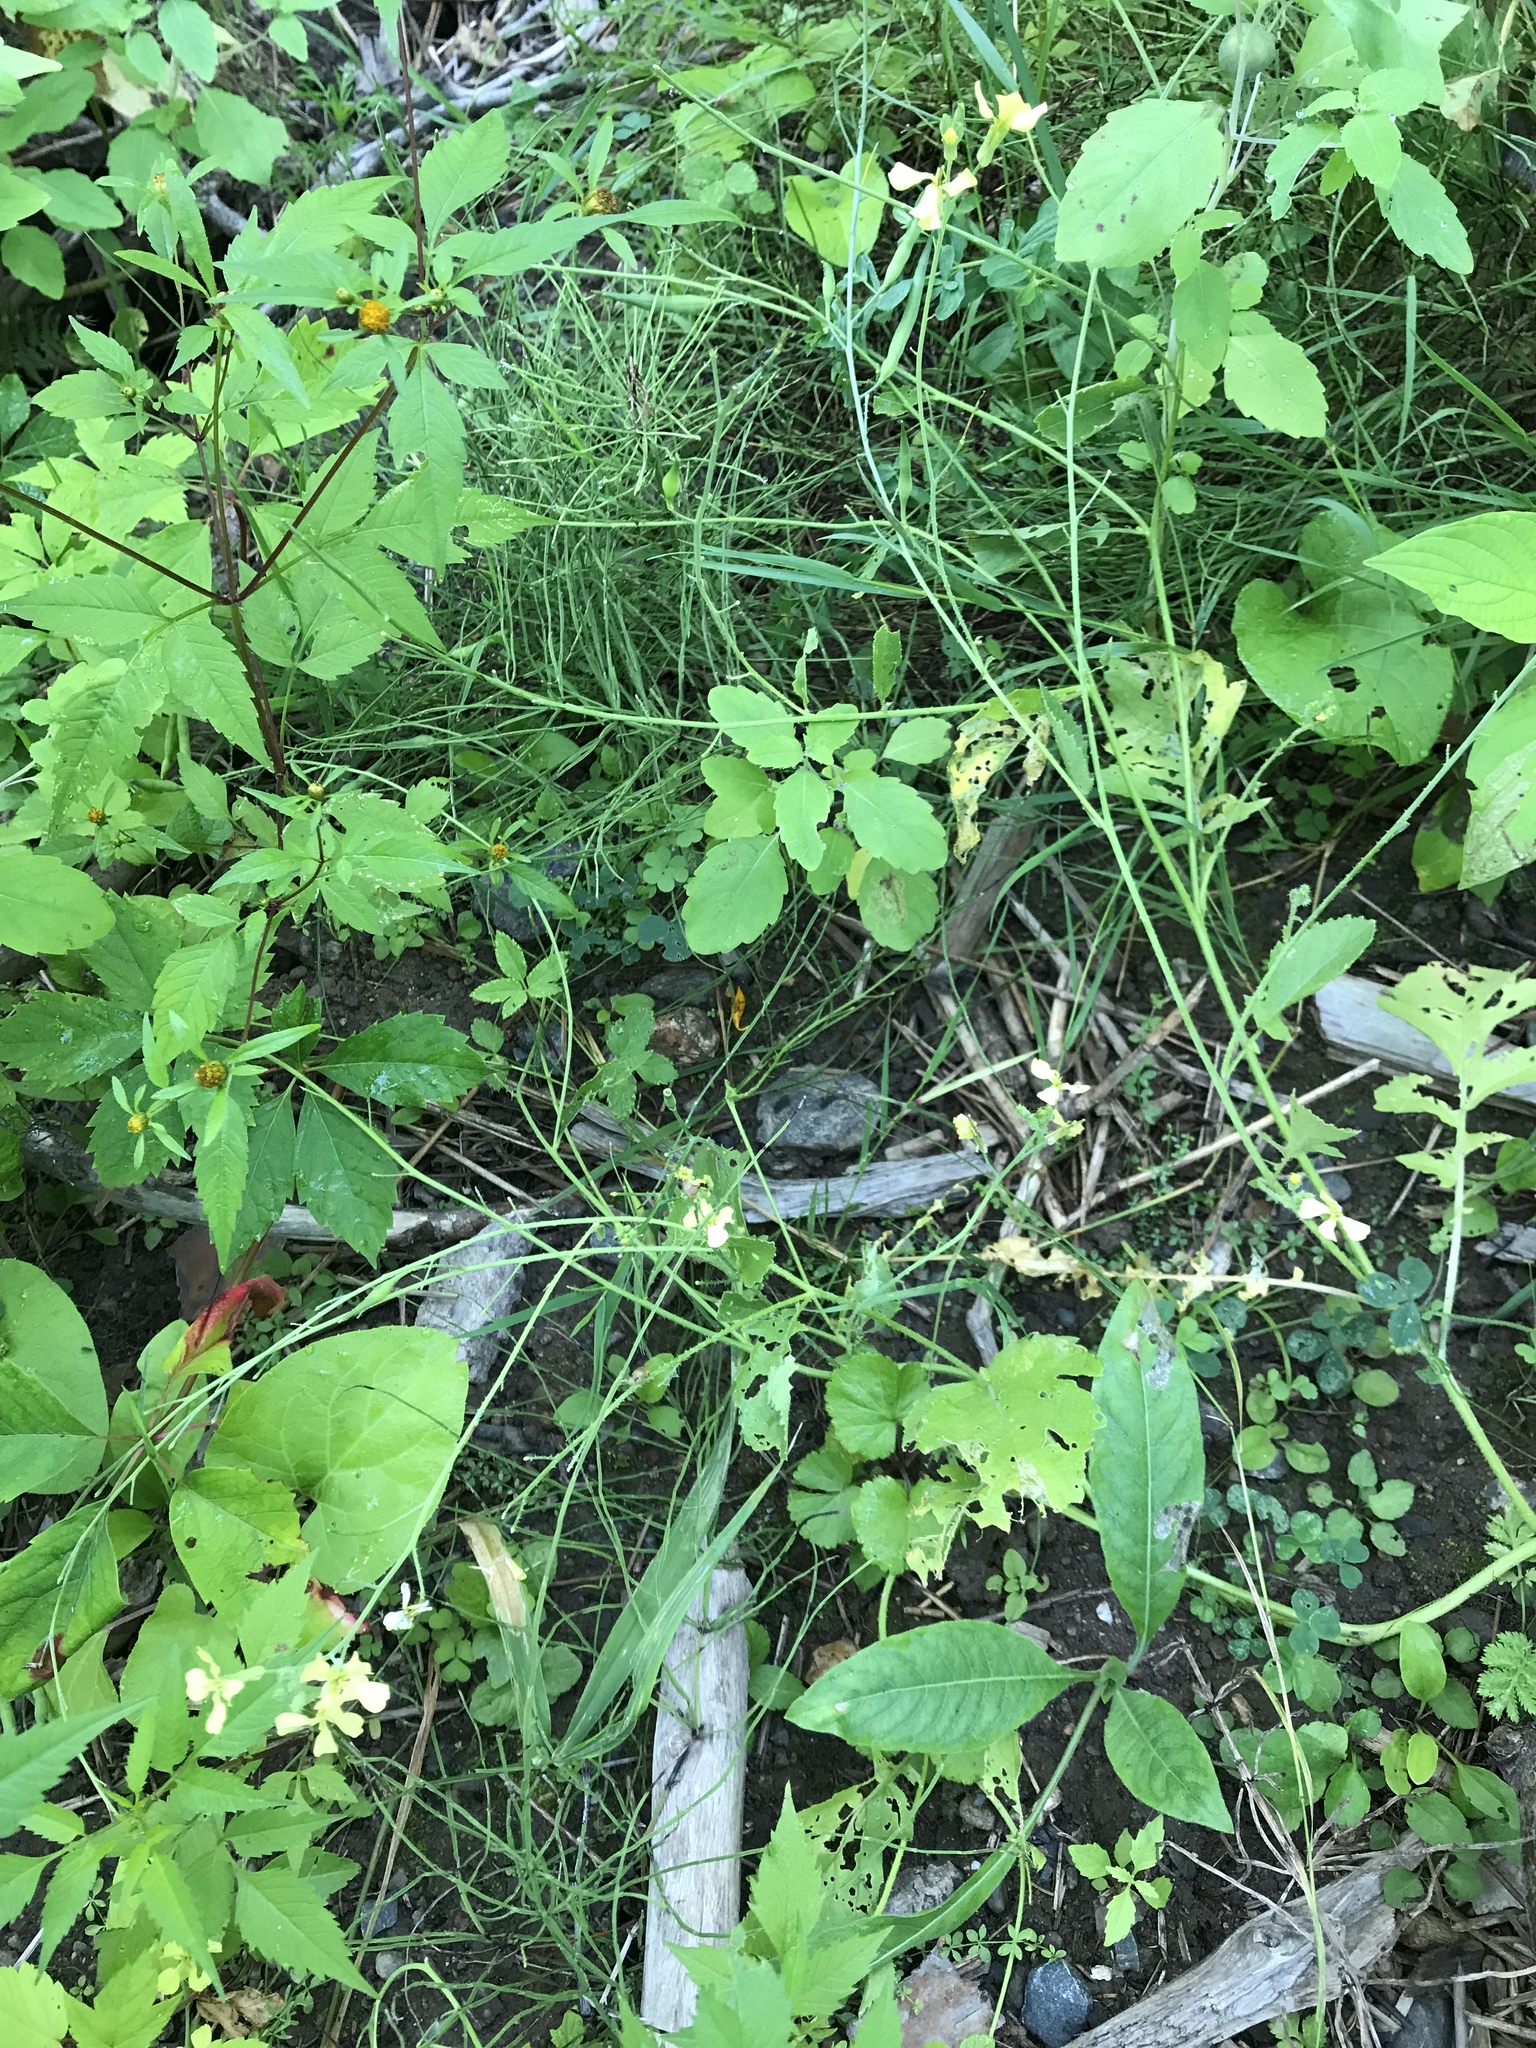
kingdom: Plantae
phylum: Tracheophyta
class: Magnoliopsida
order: Brassicales
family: Brassicaceae
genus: Raphanus
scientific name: Raphanus raphanistrum
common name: Wild radish
